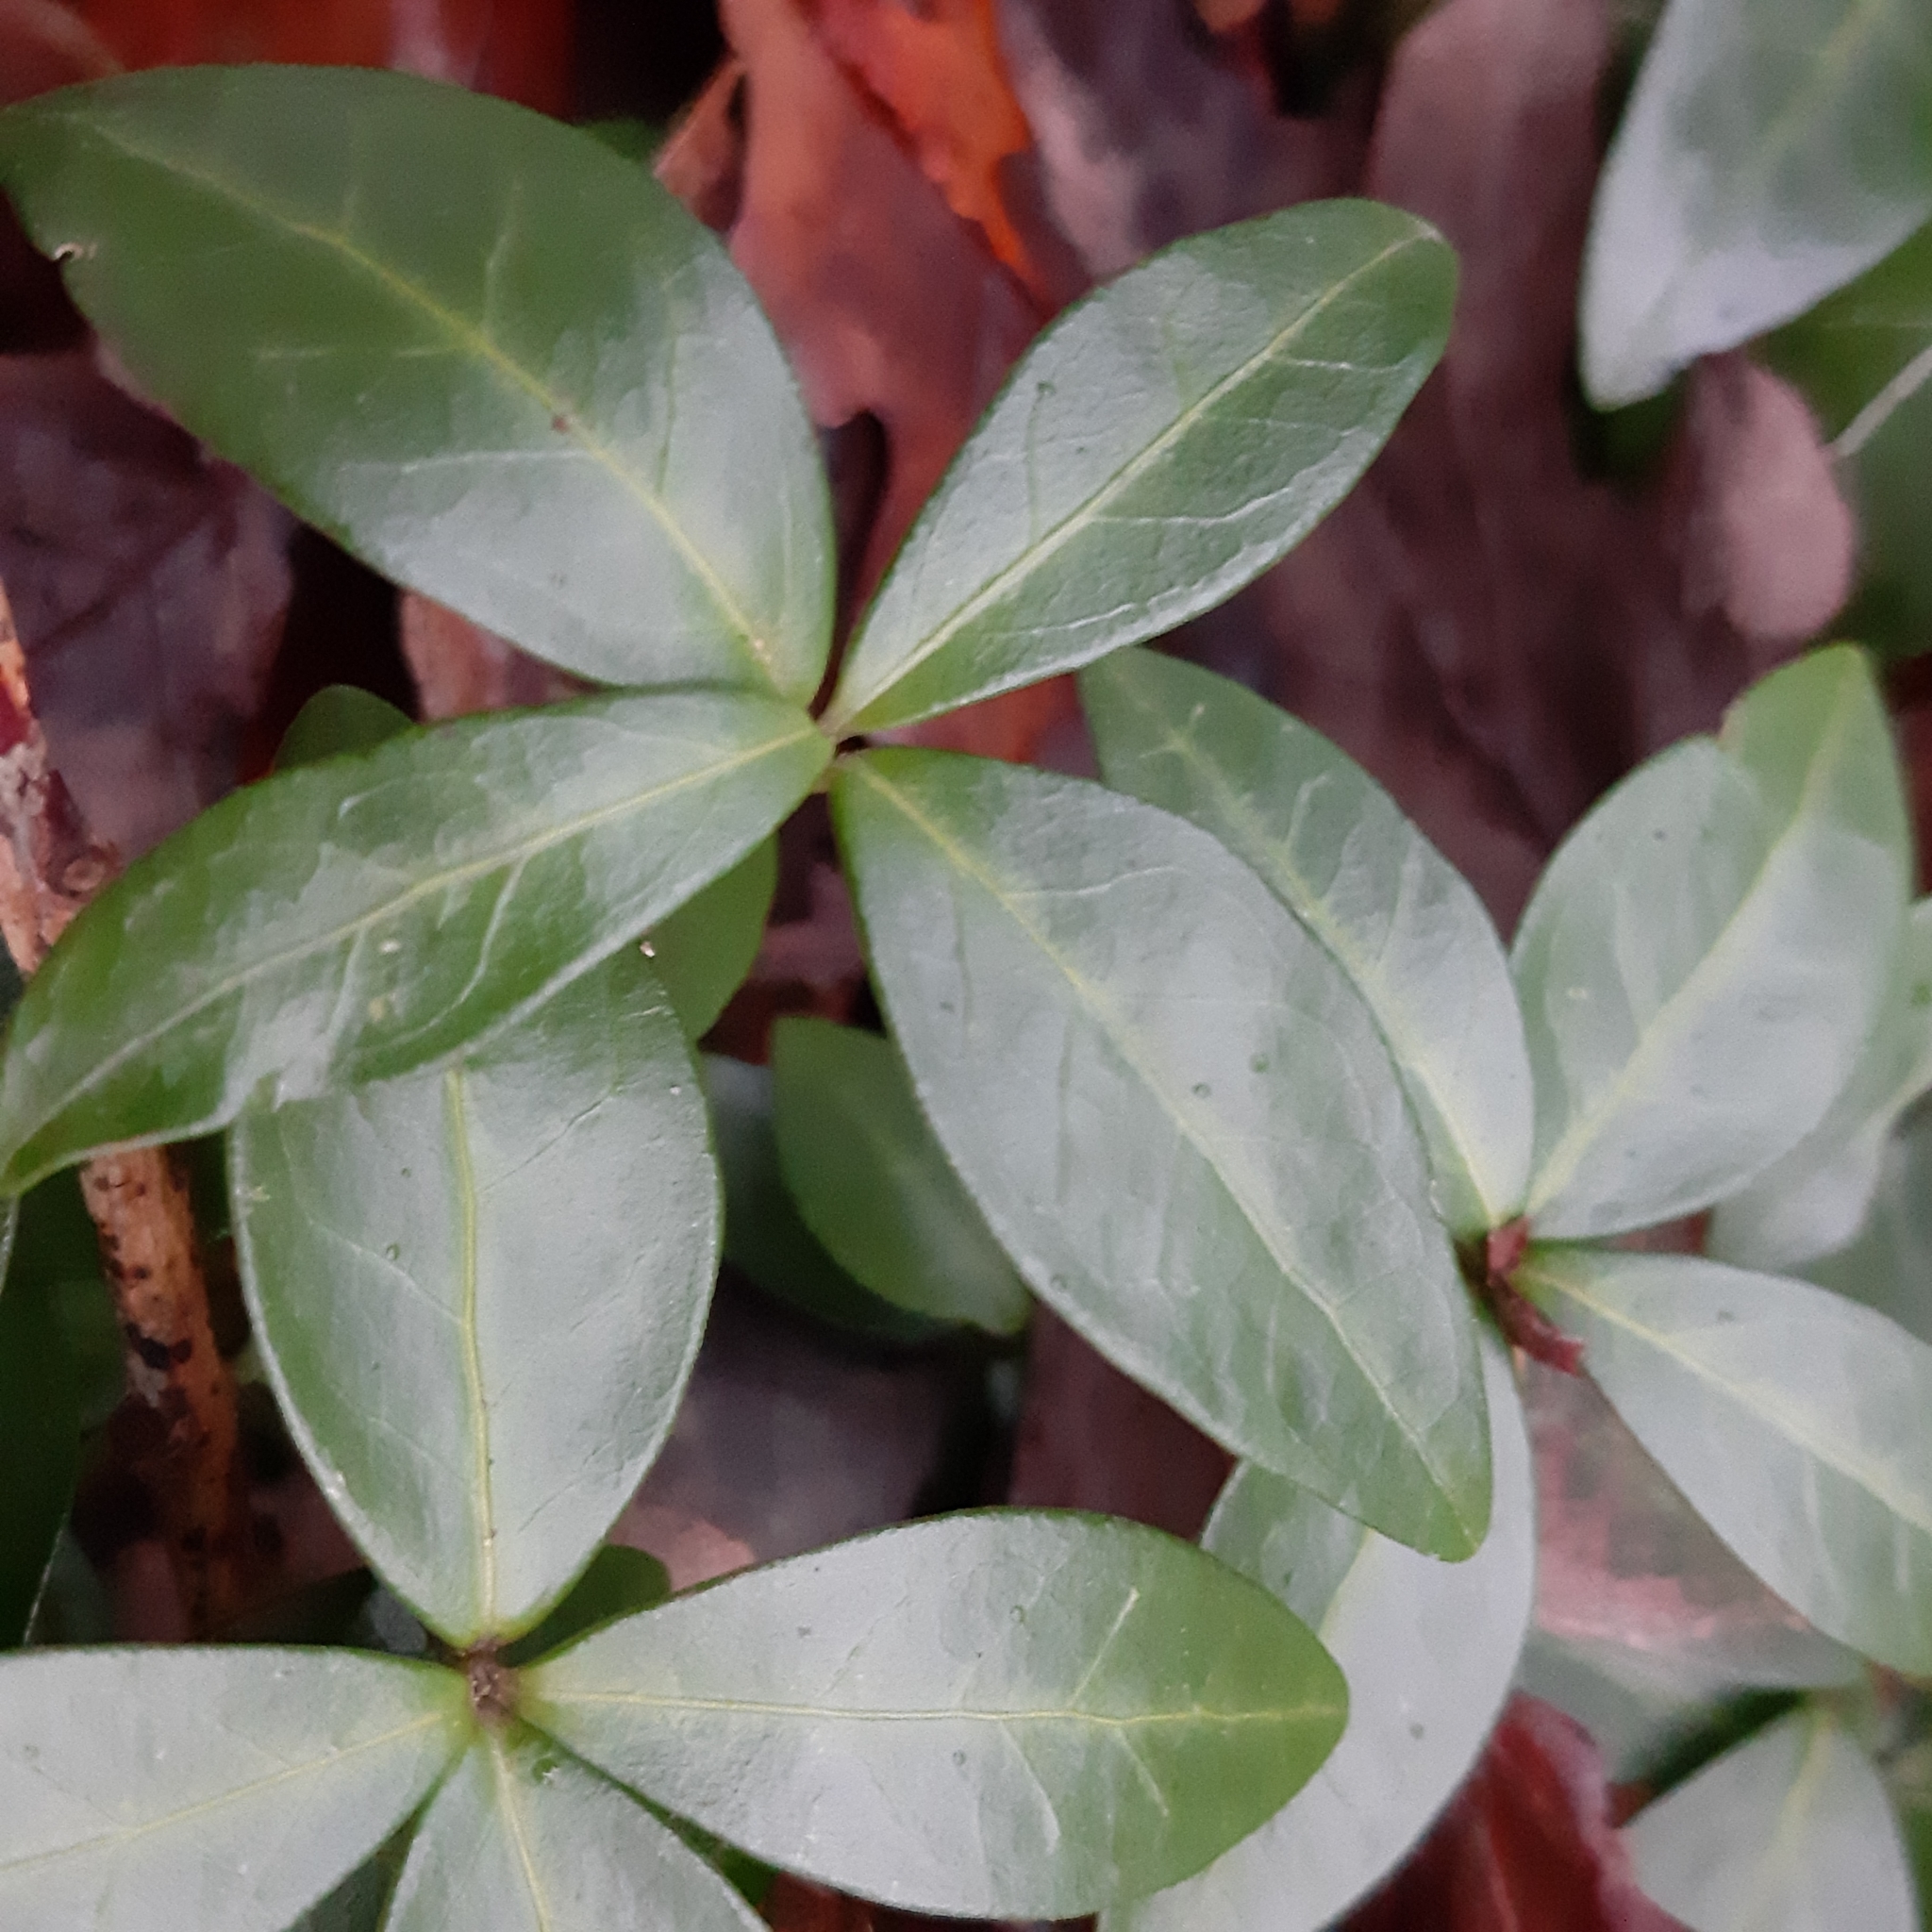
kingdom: Plantae
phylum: Tracheophyta
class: Magnoliopsida
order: Gentianales
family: Apocynaceae
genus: Vinca
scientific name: Vinca minor
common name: Lesser periwinkle
